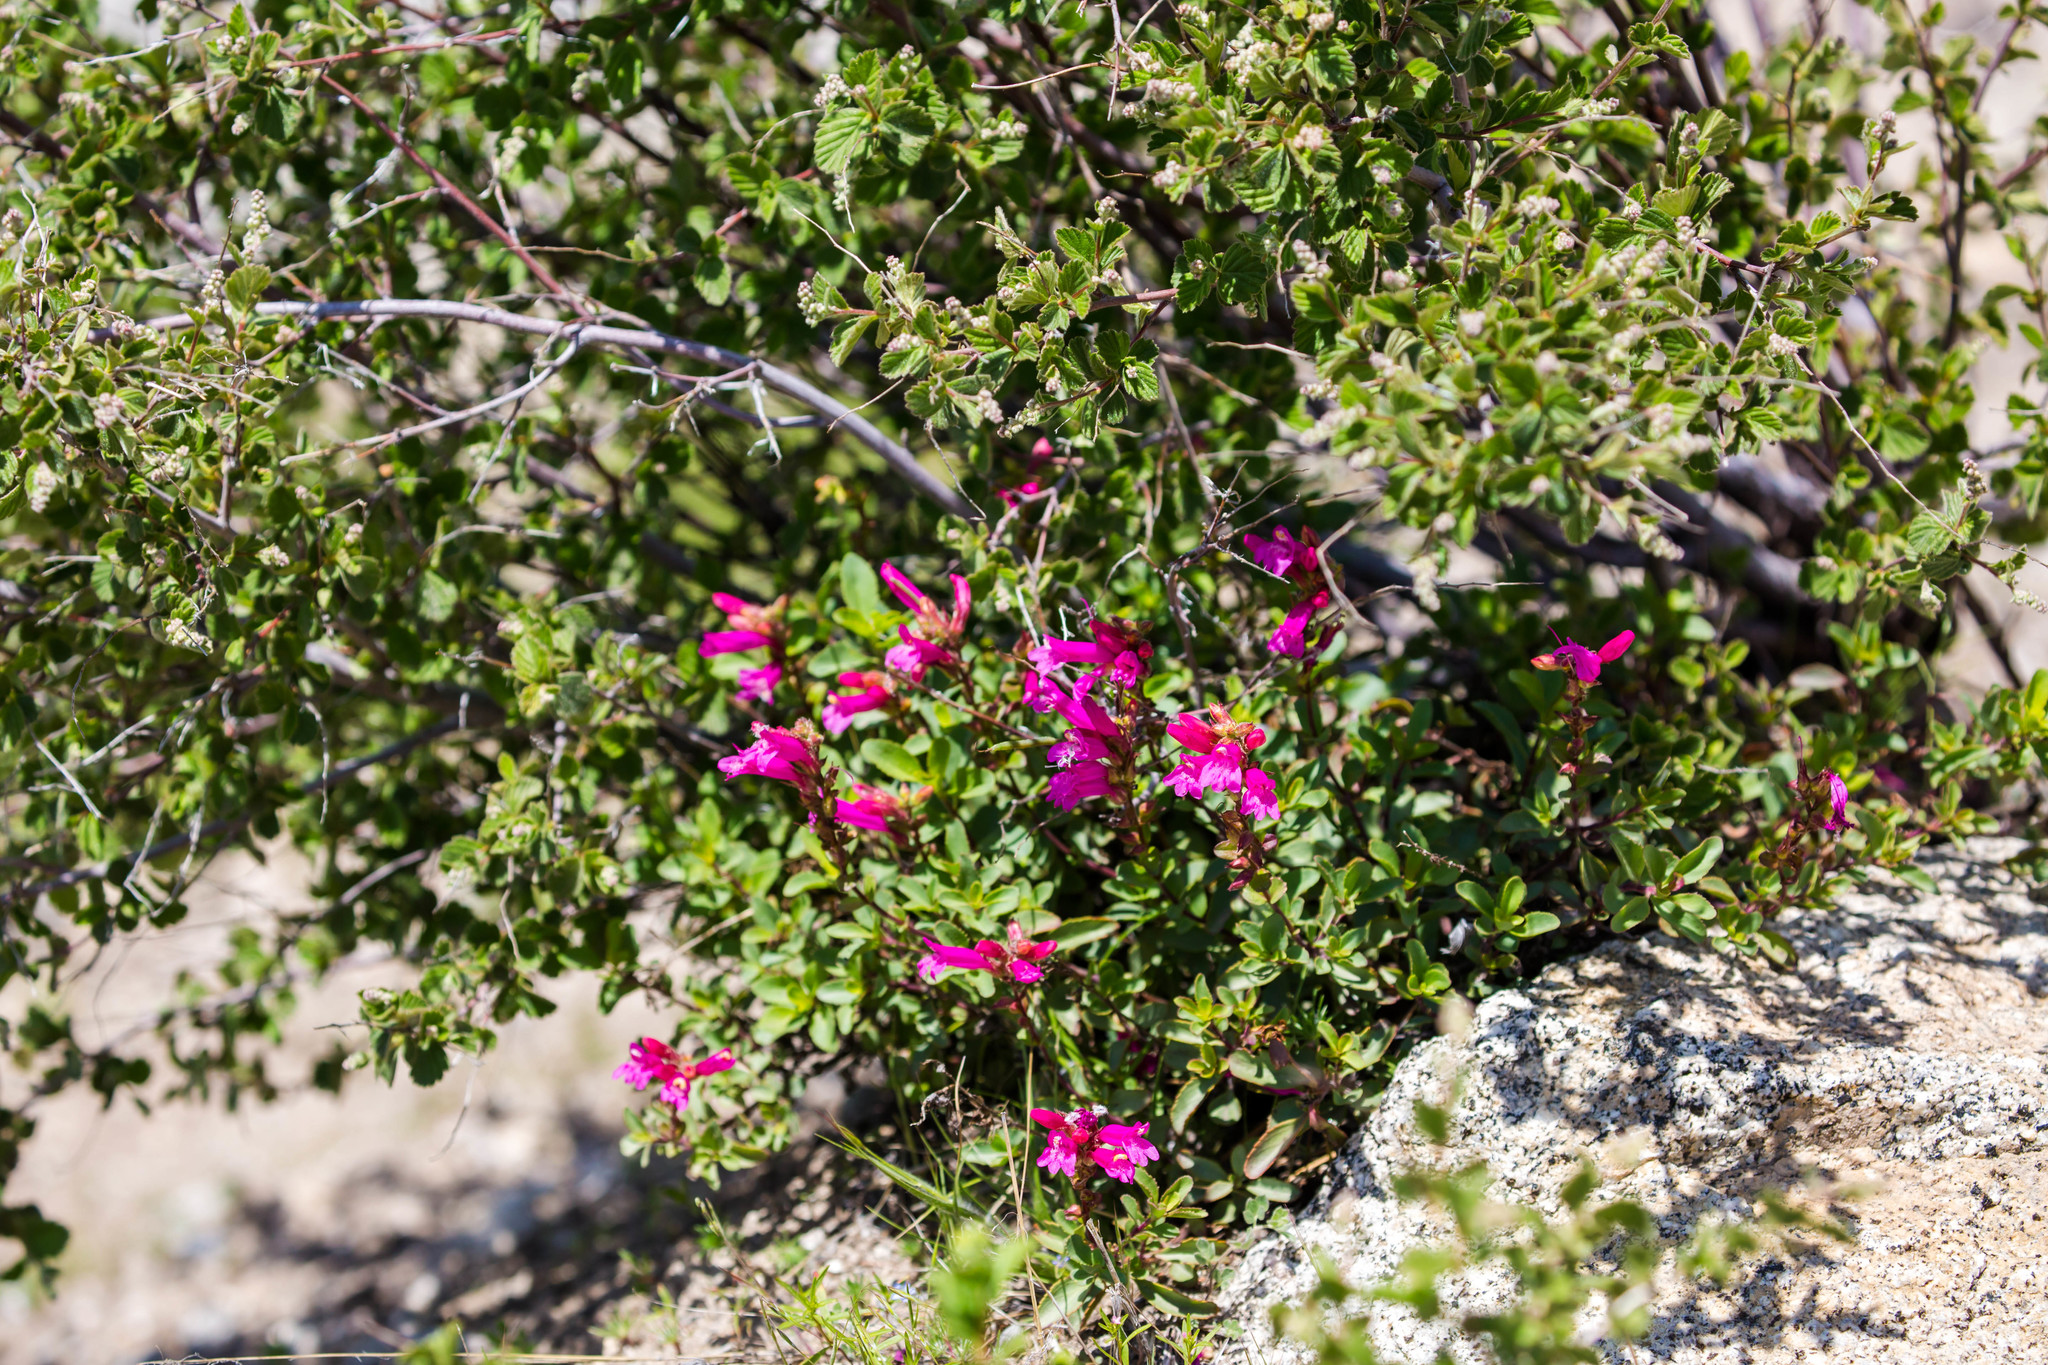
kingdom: Plantae
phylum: Tracheophyta
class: Magnoliopsida
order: Lamiales
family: Plantaginaceae
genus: Penstemon
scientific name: Penstemon newberryi
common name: Mountain-pride
